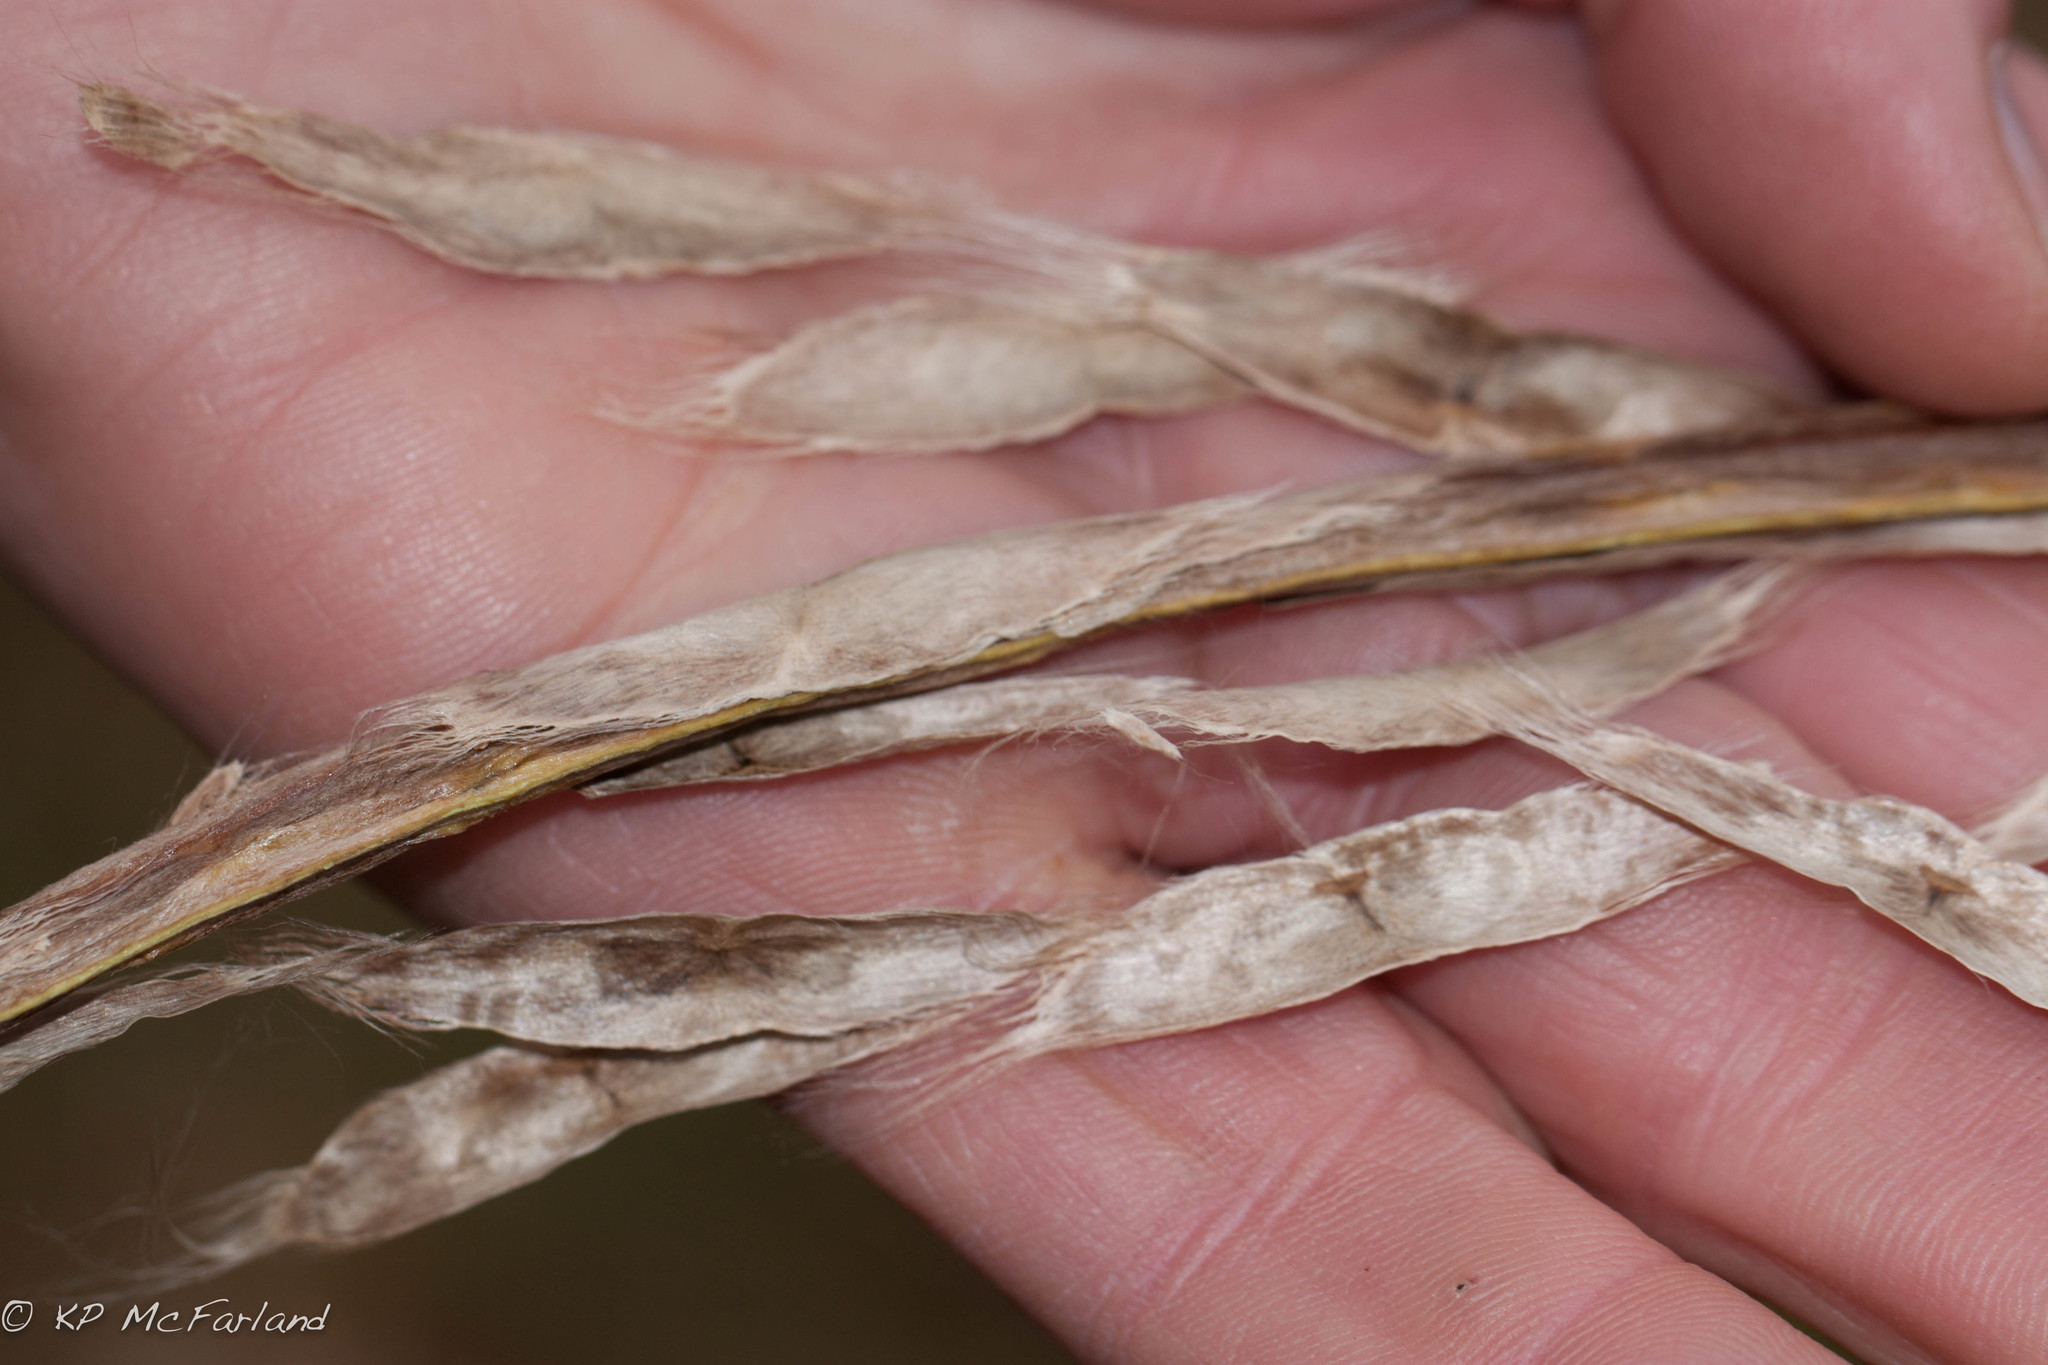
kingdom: Plantae
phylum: Tracheophyta
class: Magnoliopsida
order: Lamiales
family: Bignoniaceae
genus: Catalpa
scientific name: Catalpa speciosa
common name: Northern catalpa
